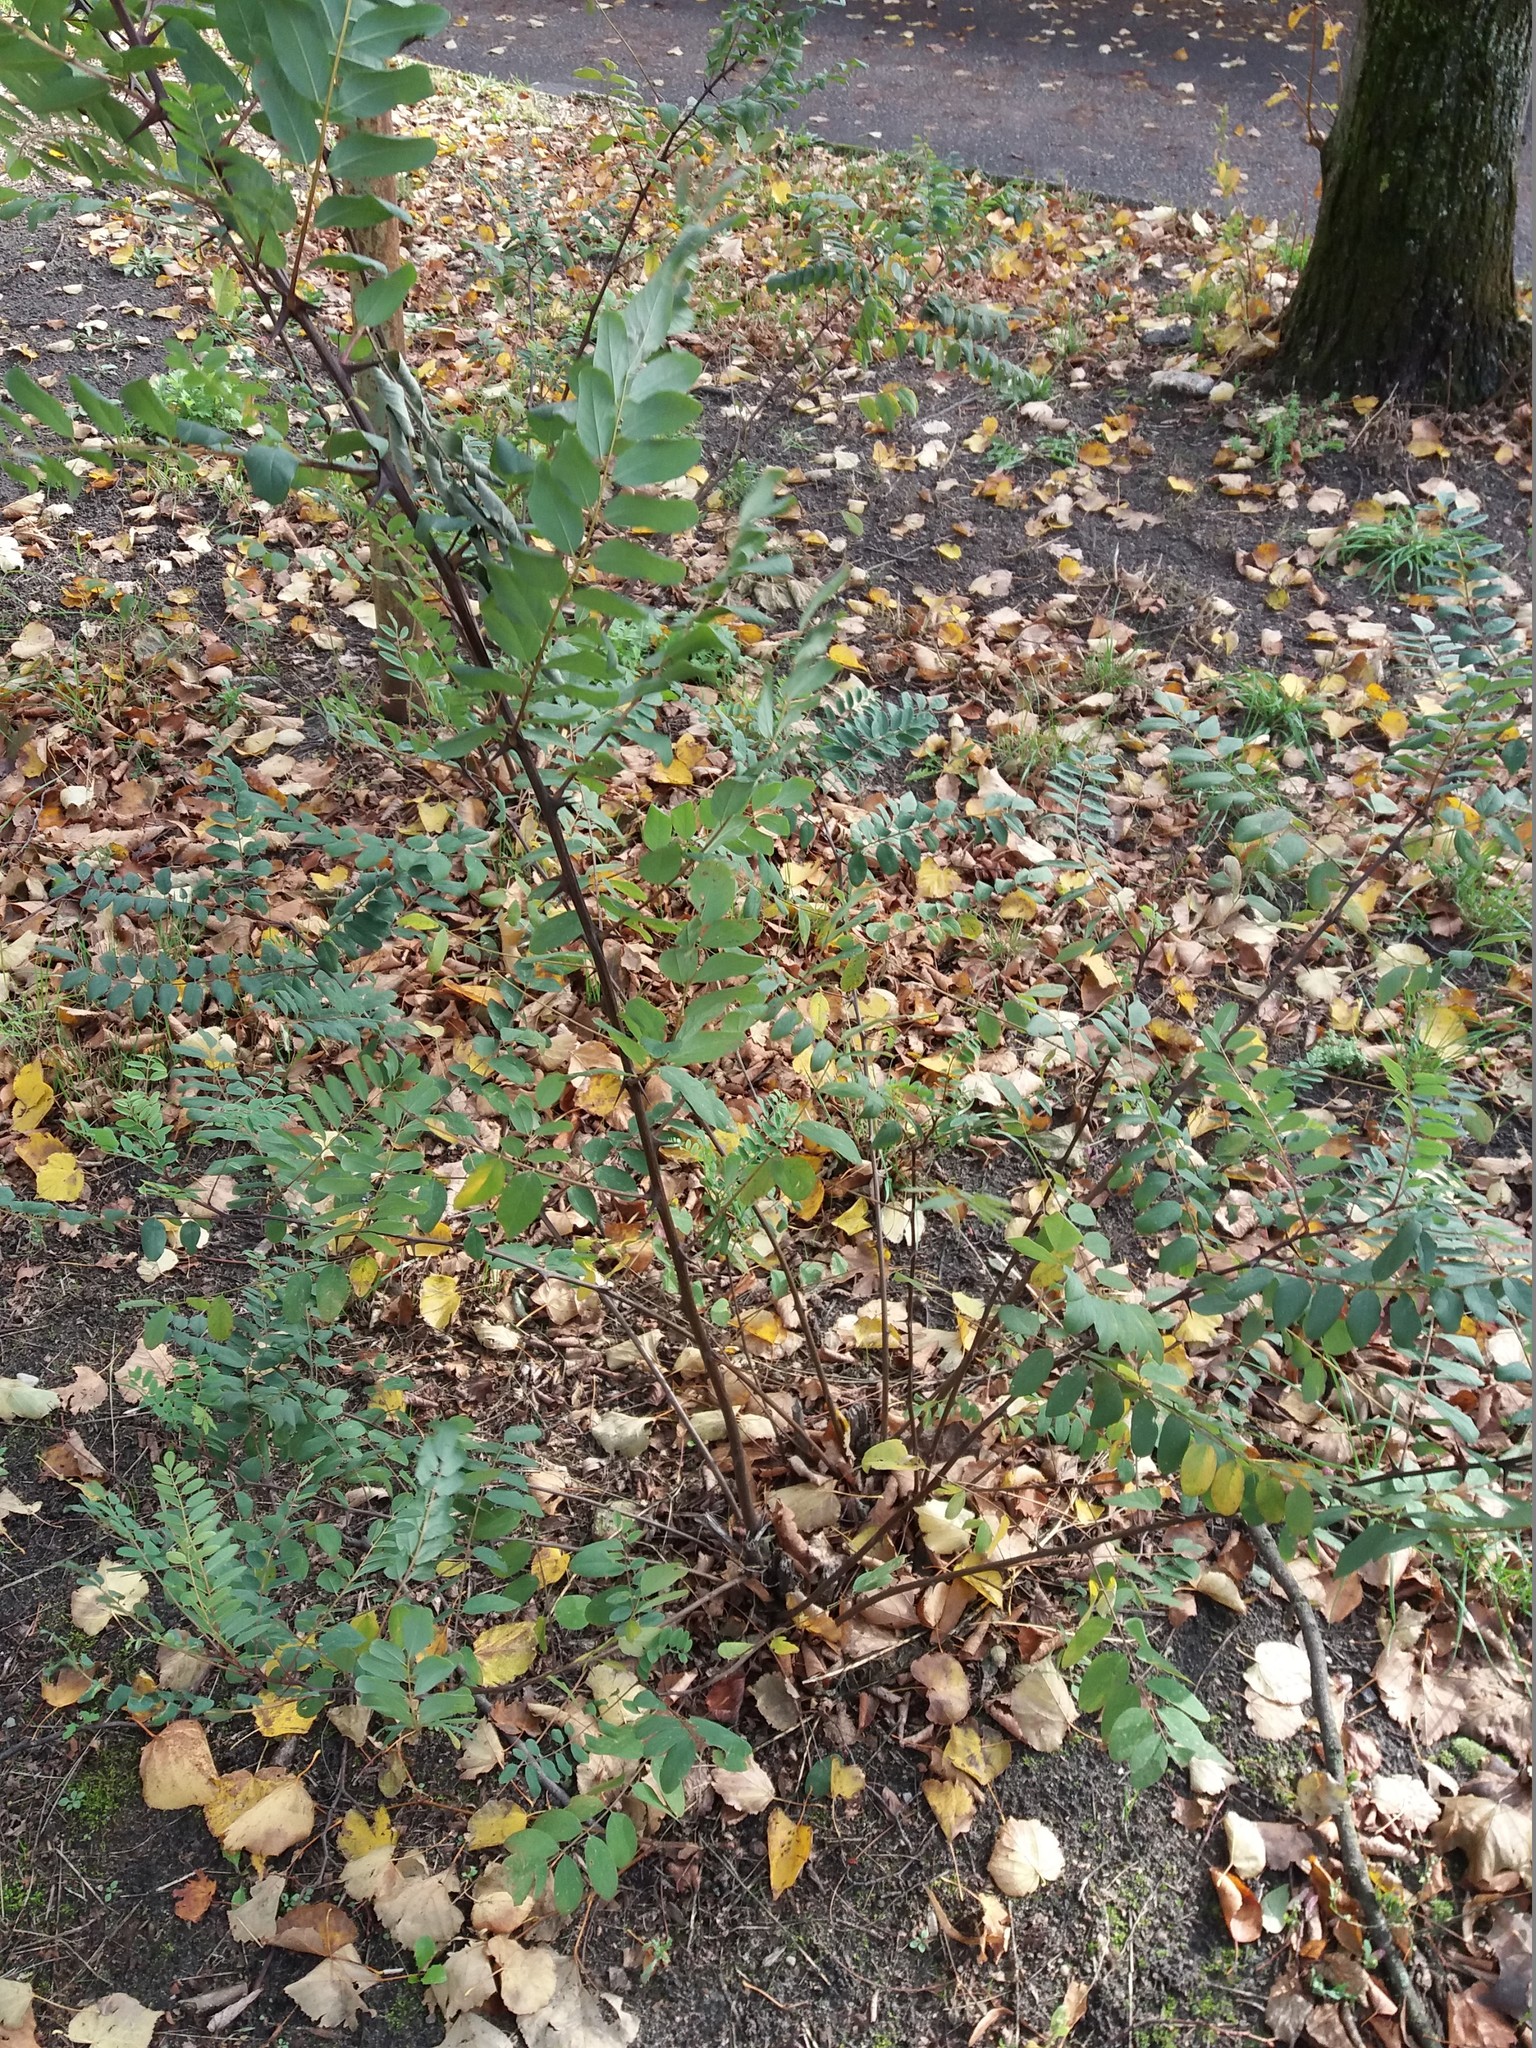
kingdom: Plantae
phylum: Tracheophyta
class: Magnoliopsida
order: Fabales
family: Fabaceae
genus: Robinia
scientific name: Robinia pseudoacacia
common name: Black locust
